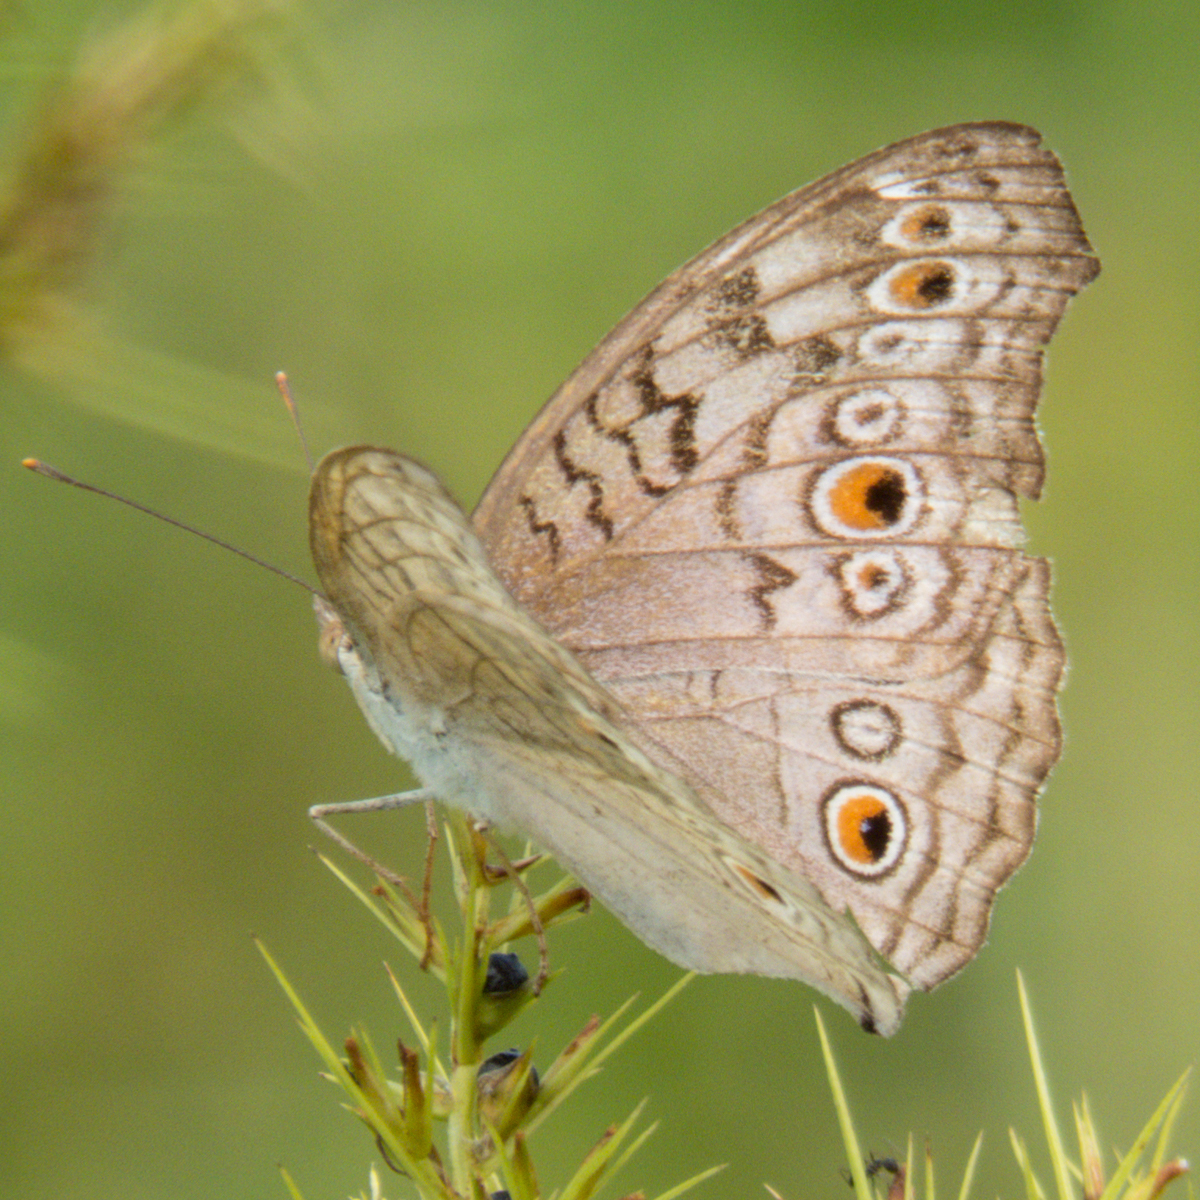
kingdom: Animalia
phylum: Arthropoda
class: Insecta
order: Lepidoptera
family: Nymphalidae
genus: Junonia
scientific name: Junonia atlites
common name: Grey pansy
